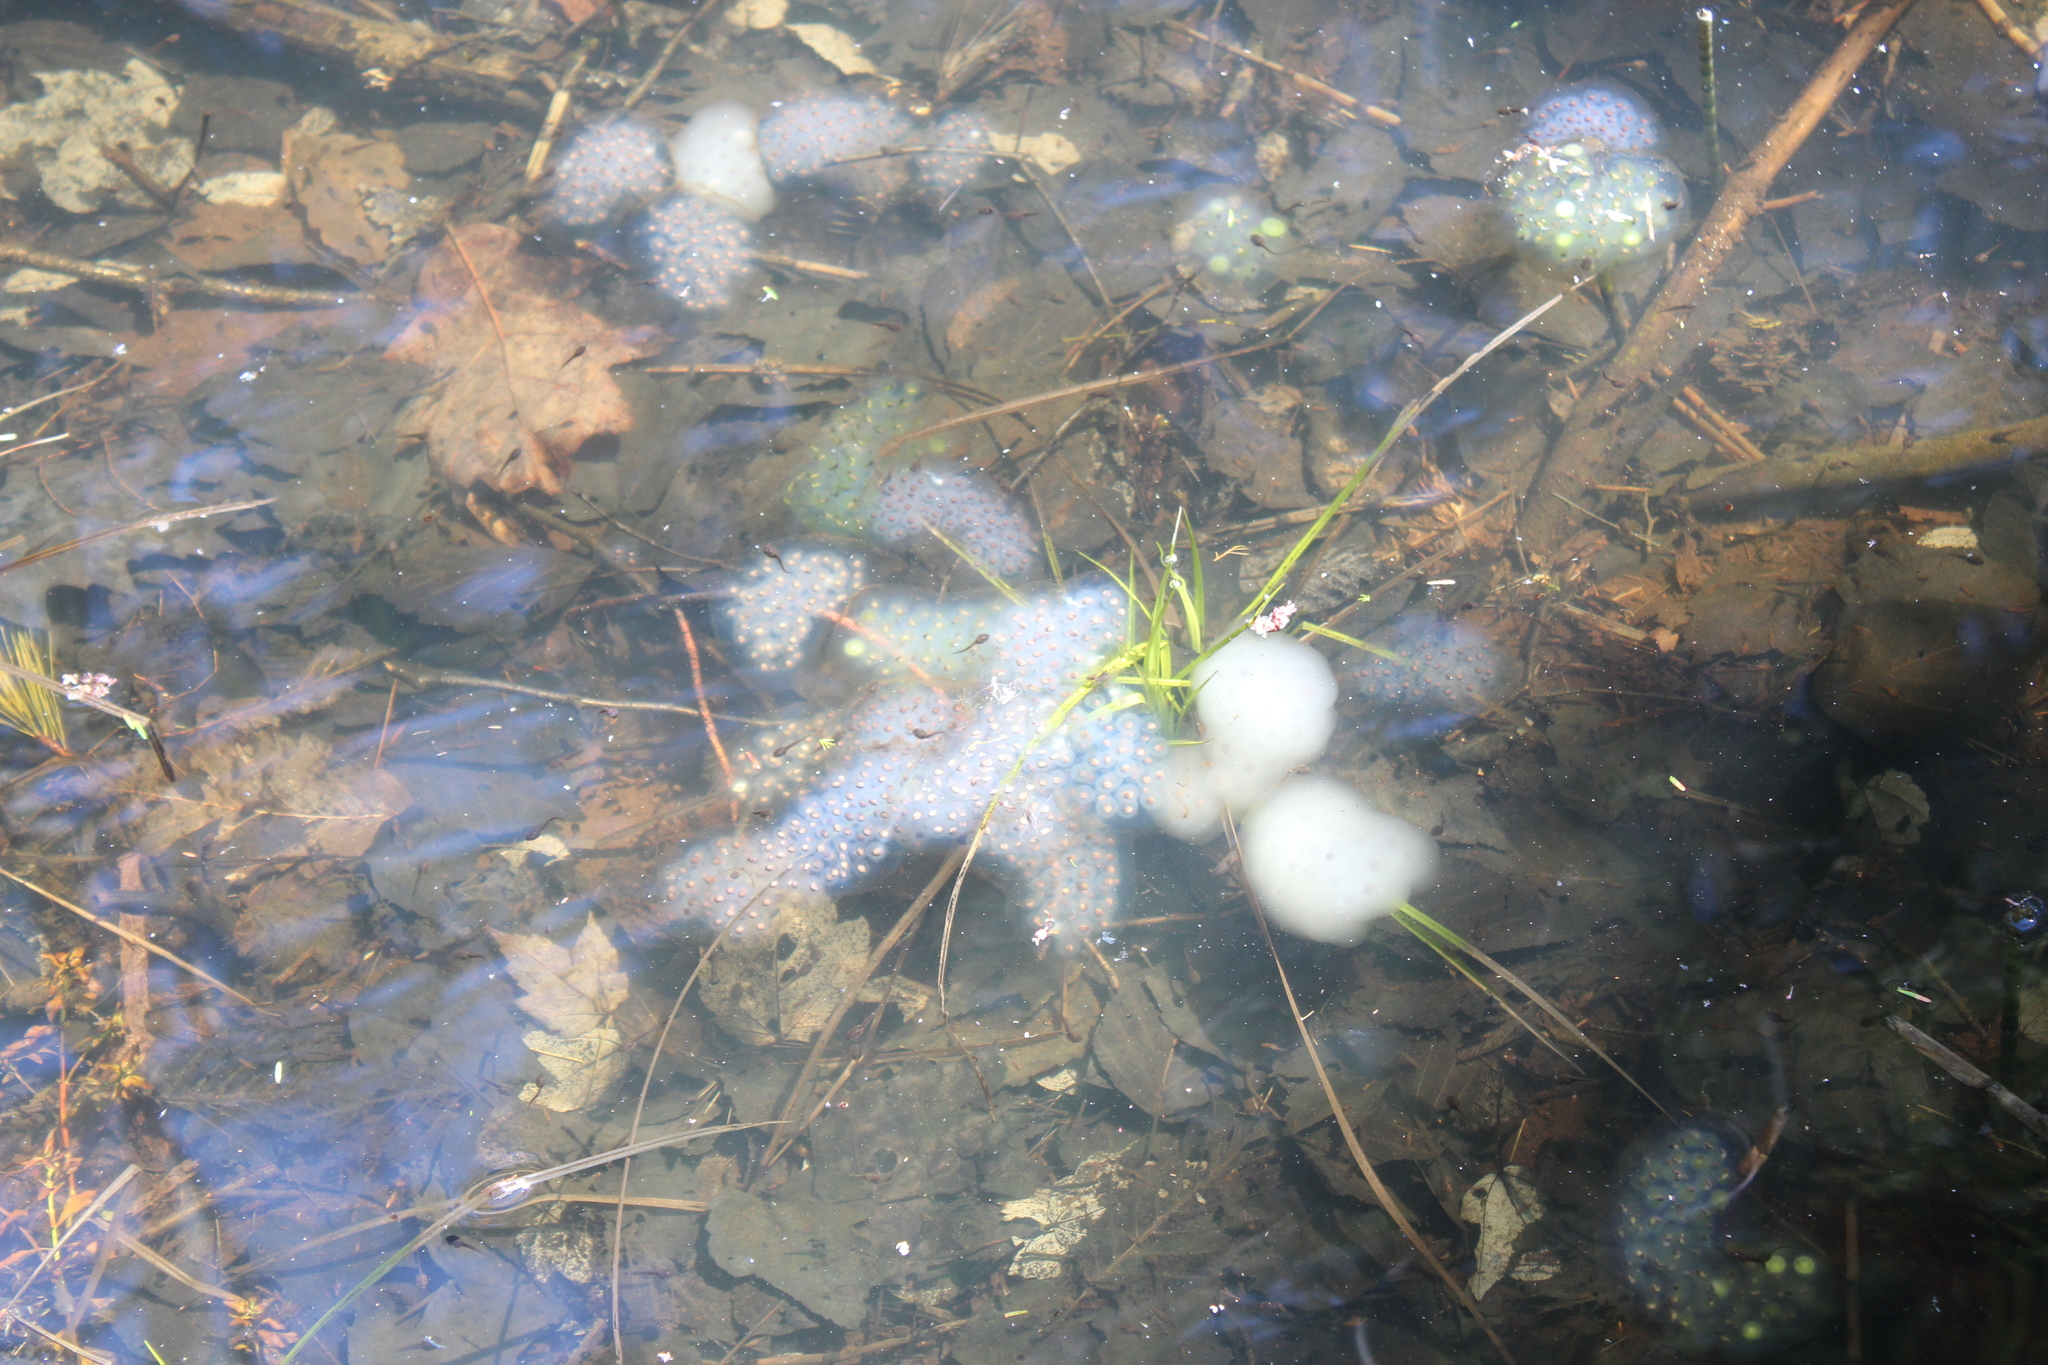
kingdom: Animalia
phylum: Chordata
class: Amphibia
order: Caudata
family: Ambystomatidae
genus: Ambystoma
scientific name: Ambystoma maculatum
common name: Spotted salamander
